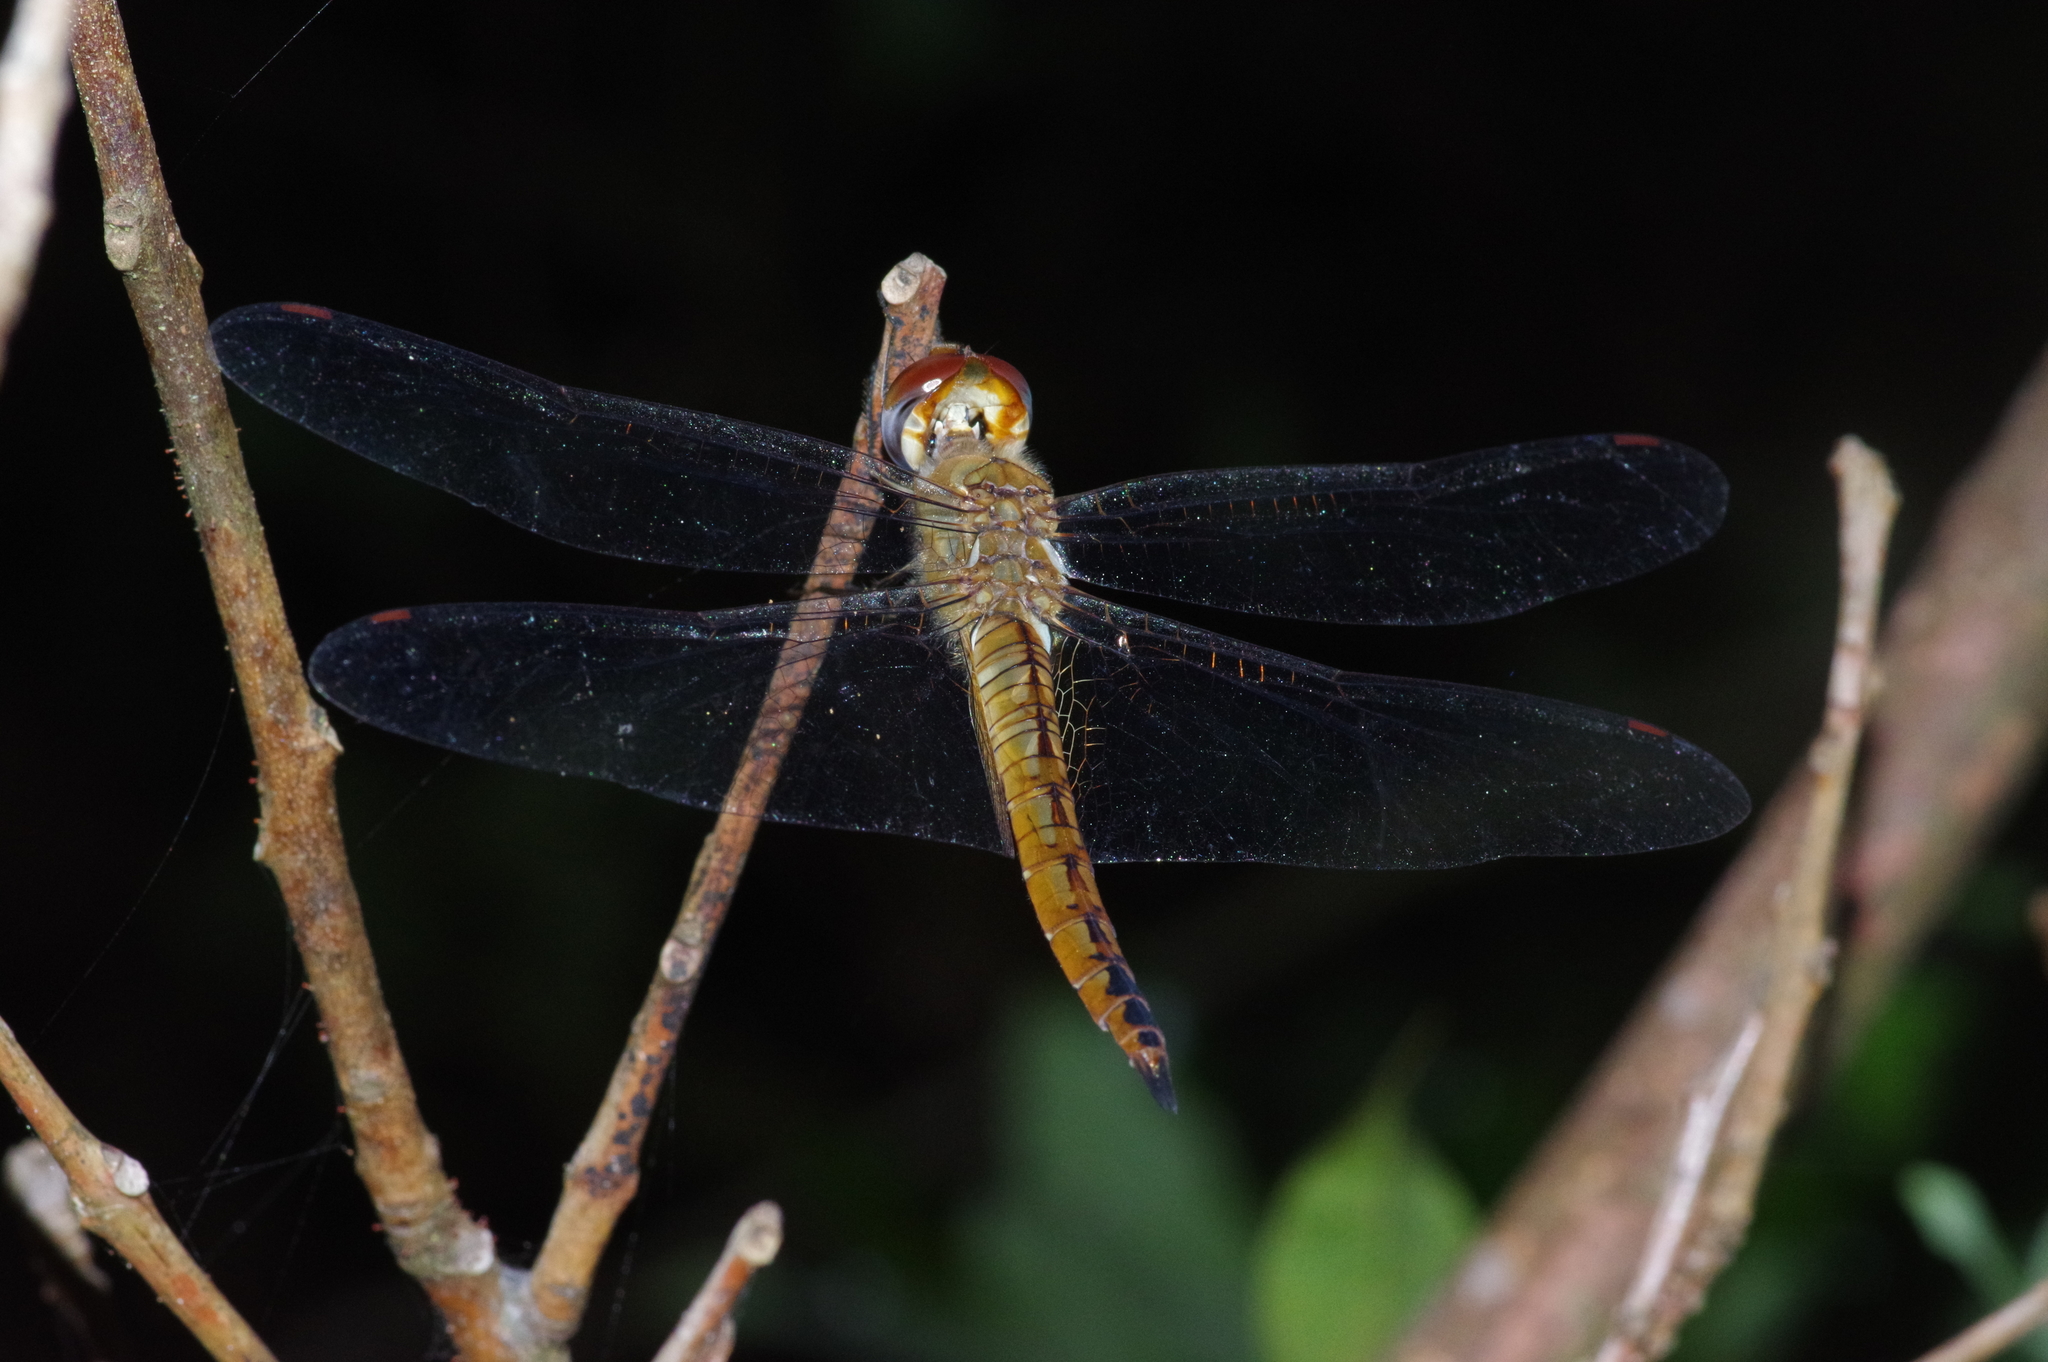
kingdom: Animalia
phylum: Arthropoda
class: Insecta
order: Odonata
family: Libellulidae
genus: Pantala
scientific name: Pantala flavescens
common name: Wandering glider
